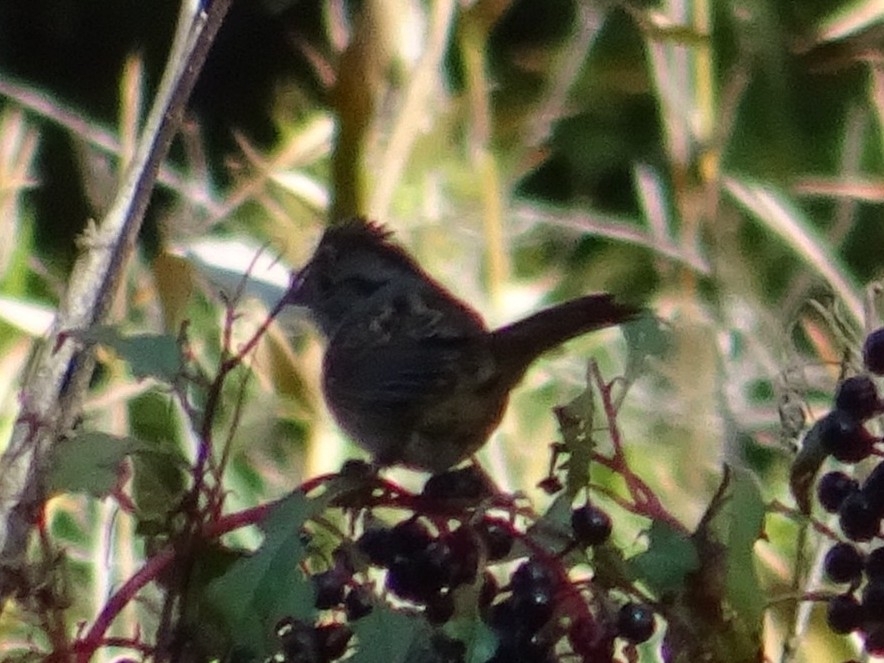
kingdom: Animalia
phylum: Chordata
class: Aves
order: Passeriformes
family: Passerellidae
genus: Melospiza
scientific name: Melospiza georgiana
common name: Swamp sparrow
